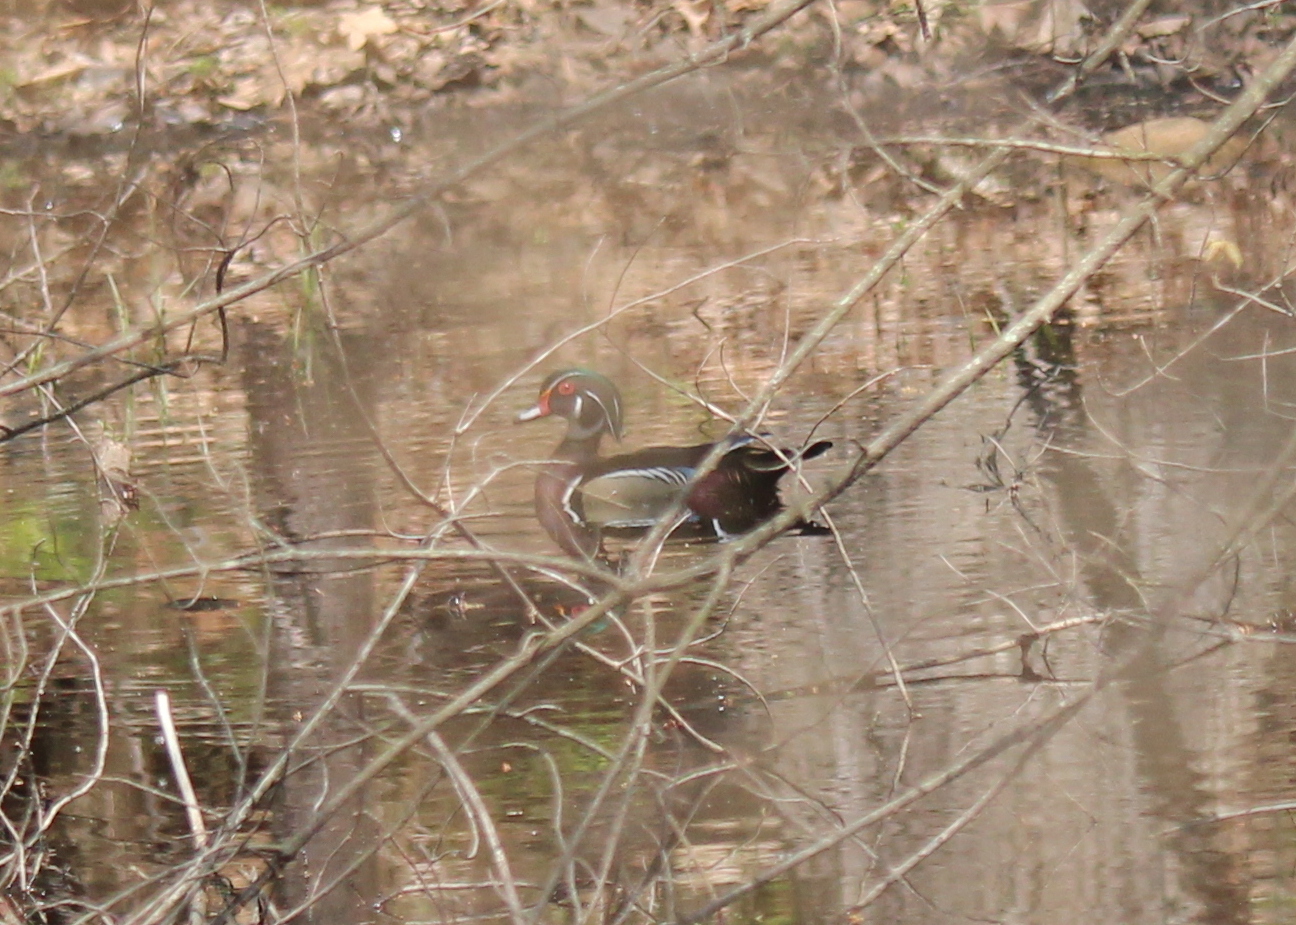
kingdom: Animalia
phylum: Chordata
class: Aves
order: Anseriformes
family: Anatidae
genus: Aix
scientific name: Aix sponsa
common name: Wood duck
